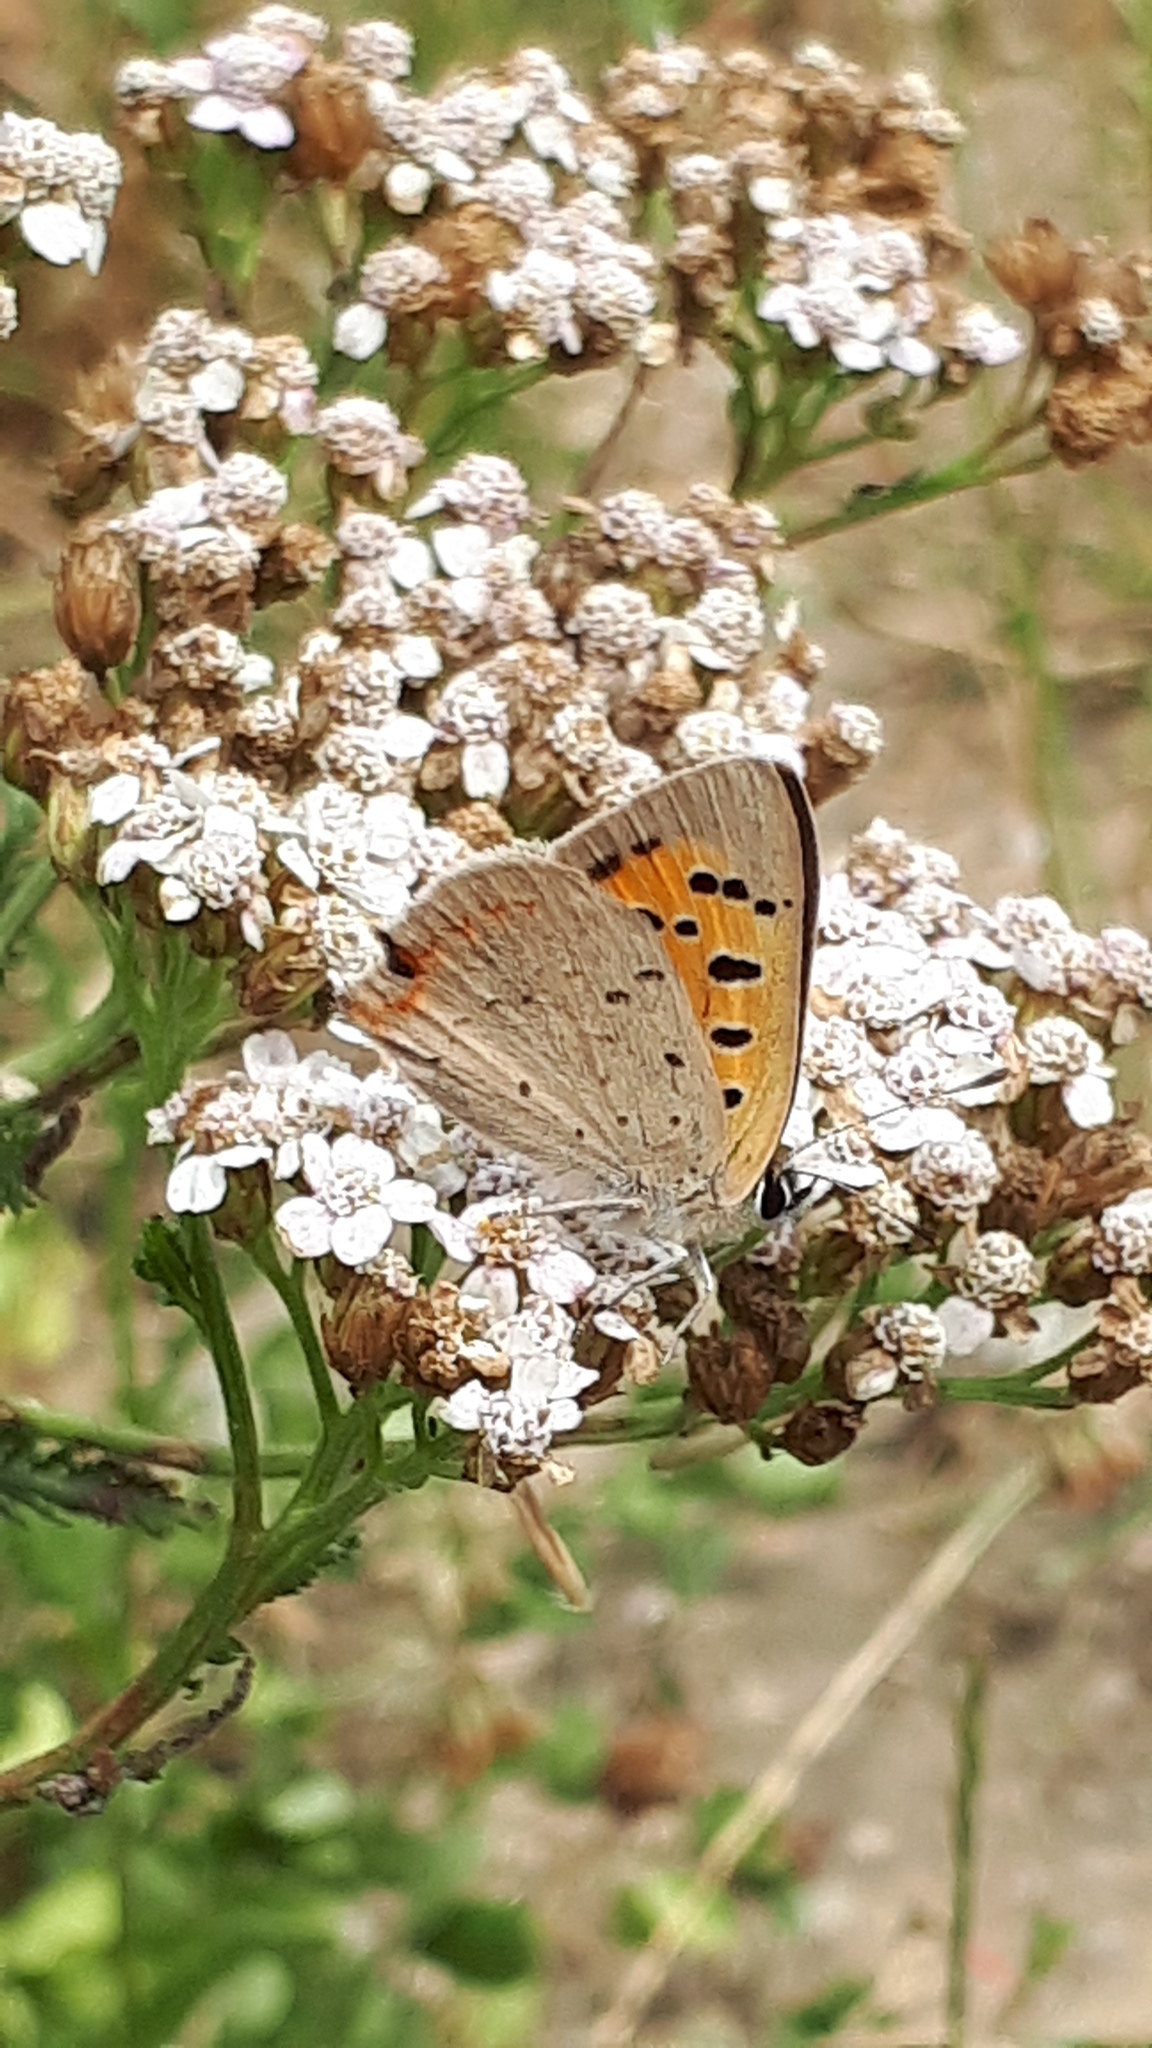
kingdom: Animalia
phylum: Arthropoda
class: Insecta
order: Lepidoptera
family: Lycaenidae
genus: Lycaena
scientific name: Lycaena phlaeas
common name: Small copper
